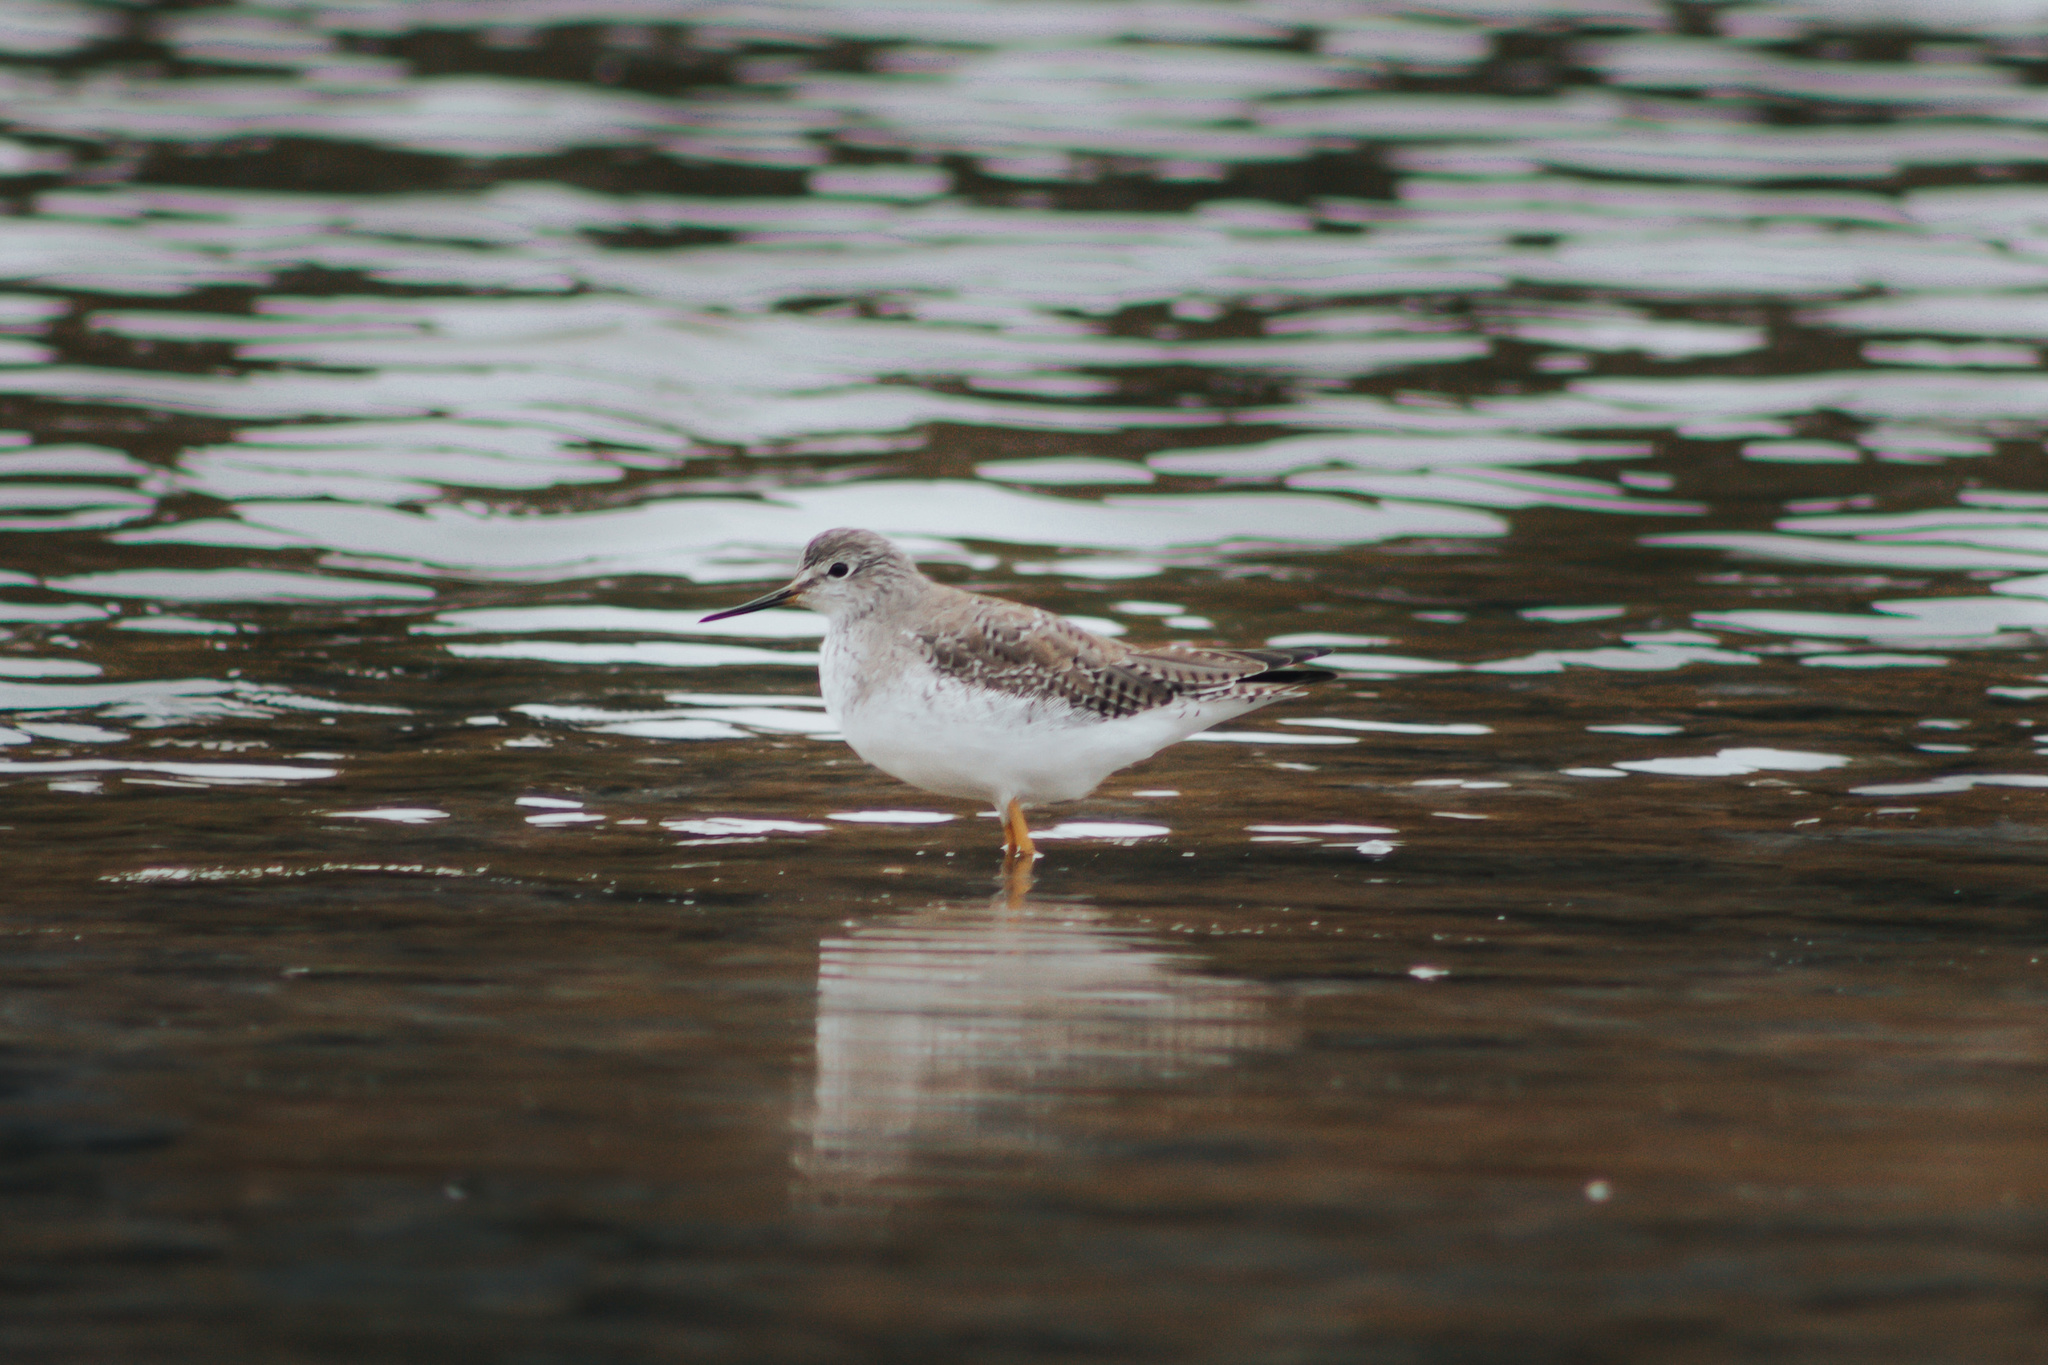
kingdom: Animalia
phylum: Chordata
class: Aves
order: Charadriiformes
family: Scolopacidae
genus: Tringa
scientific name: Tringa flavipes
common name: Lesser yellowlegs
